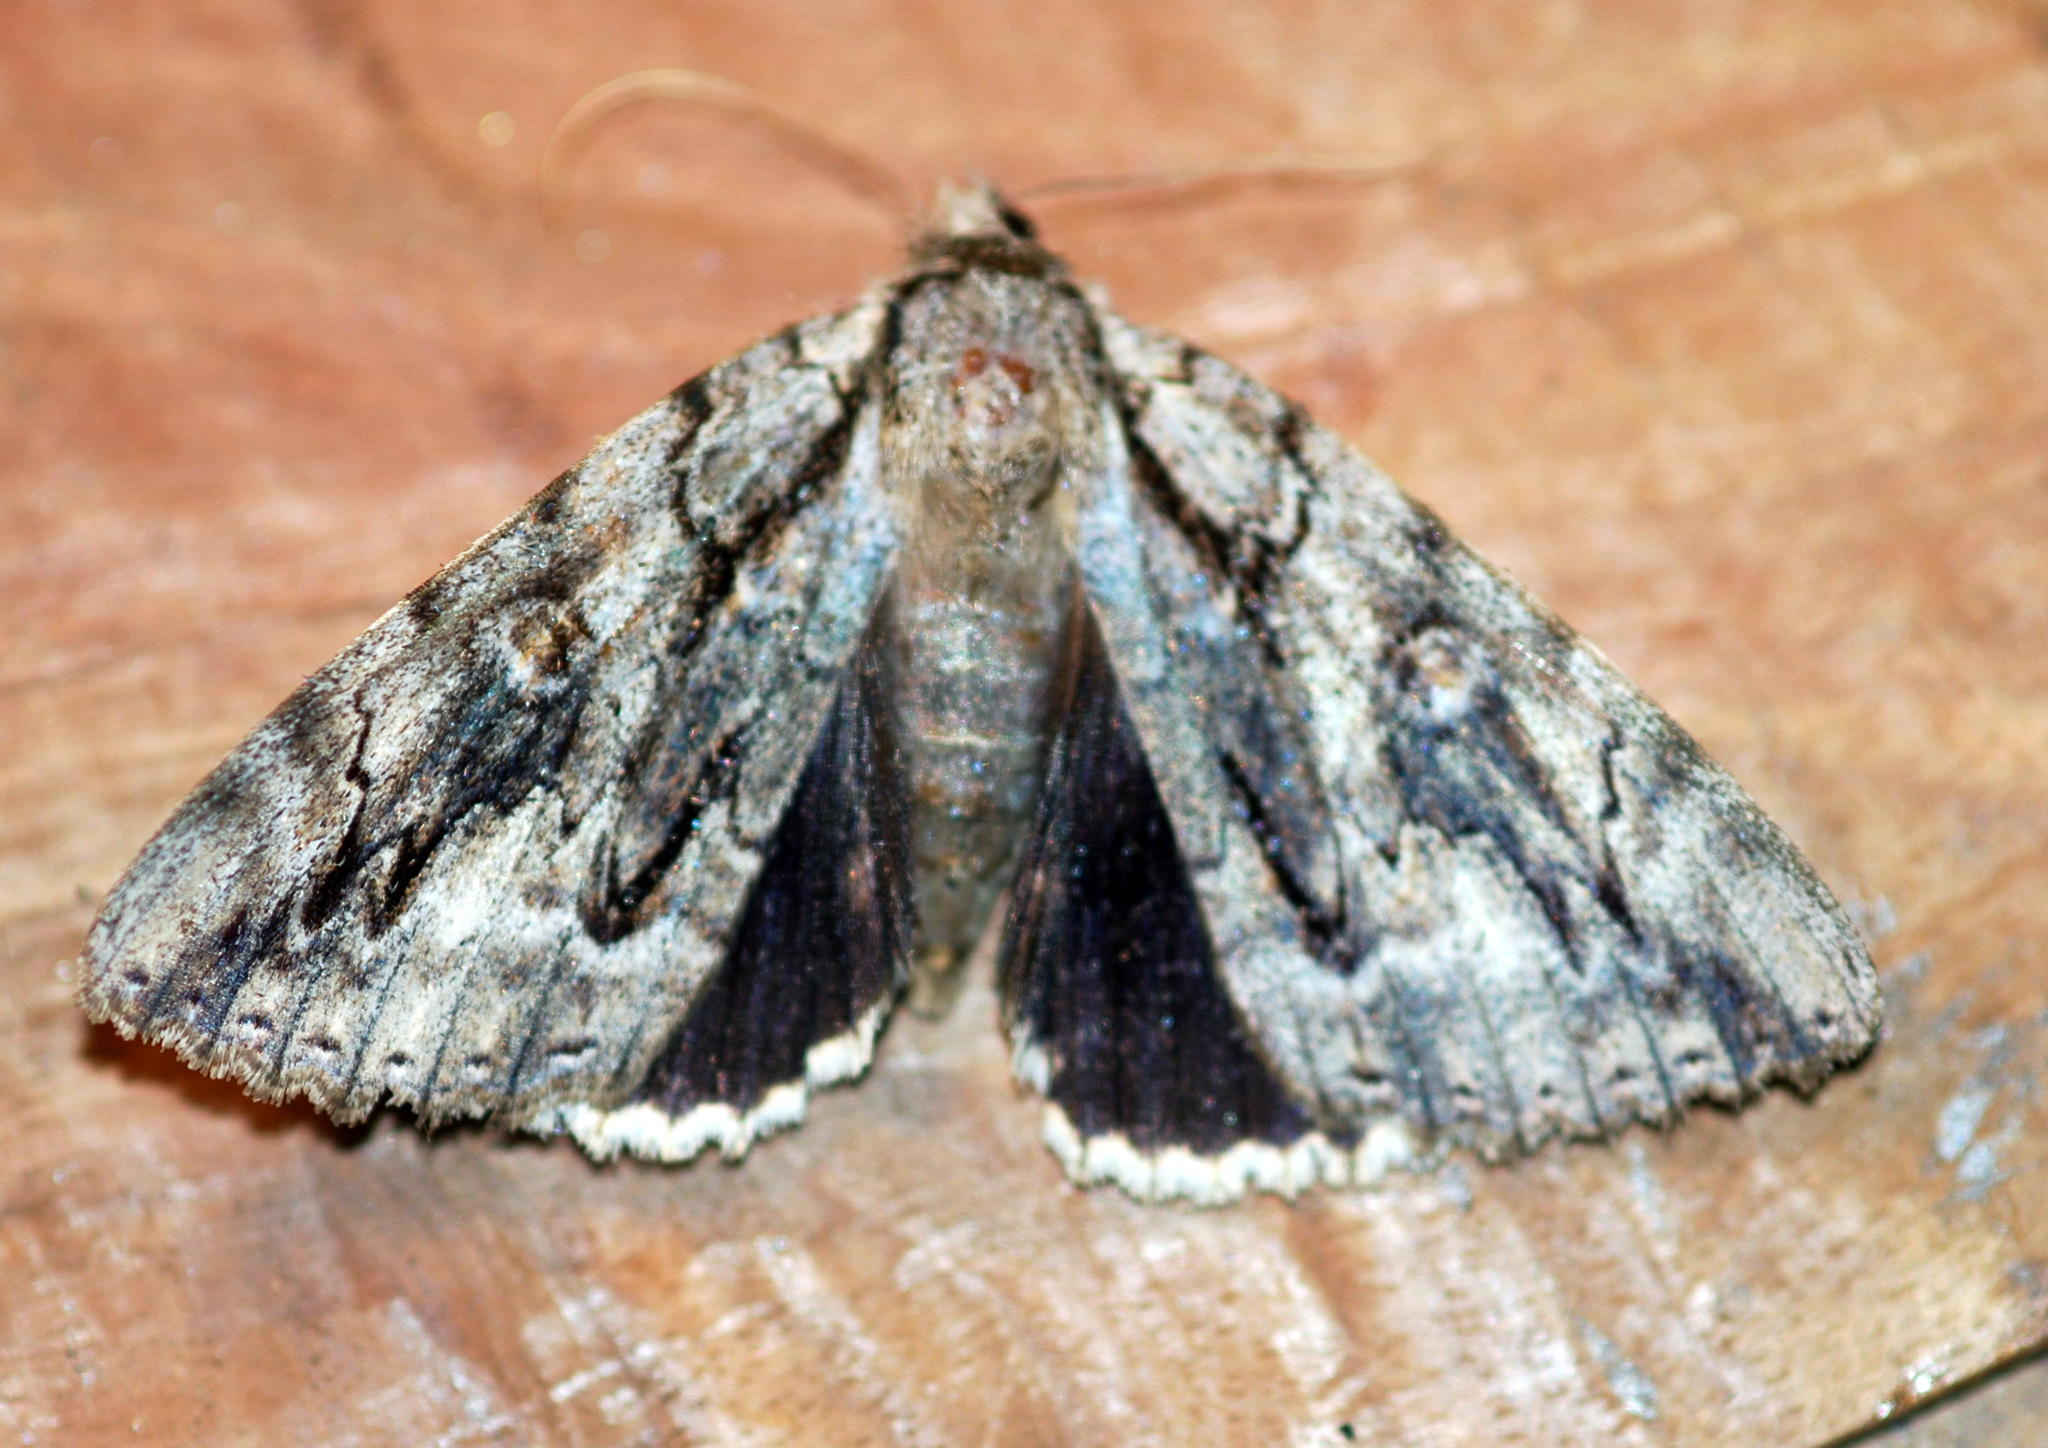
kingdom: Animalia
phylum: Arthropoda
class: Insecta
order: Lepidoptera
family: Erebidae
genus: Catocala
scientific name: Catocala retecta
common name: Yellow-gray underwing
